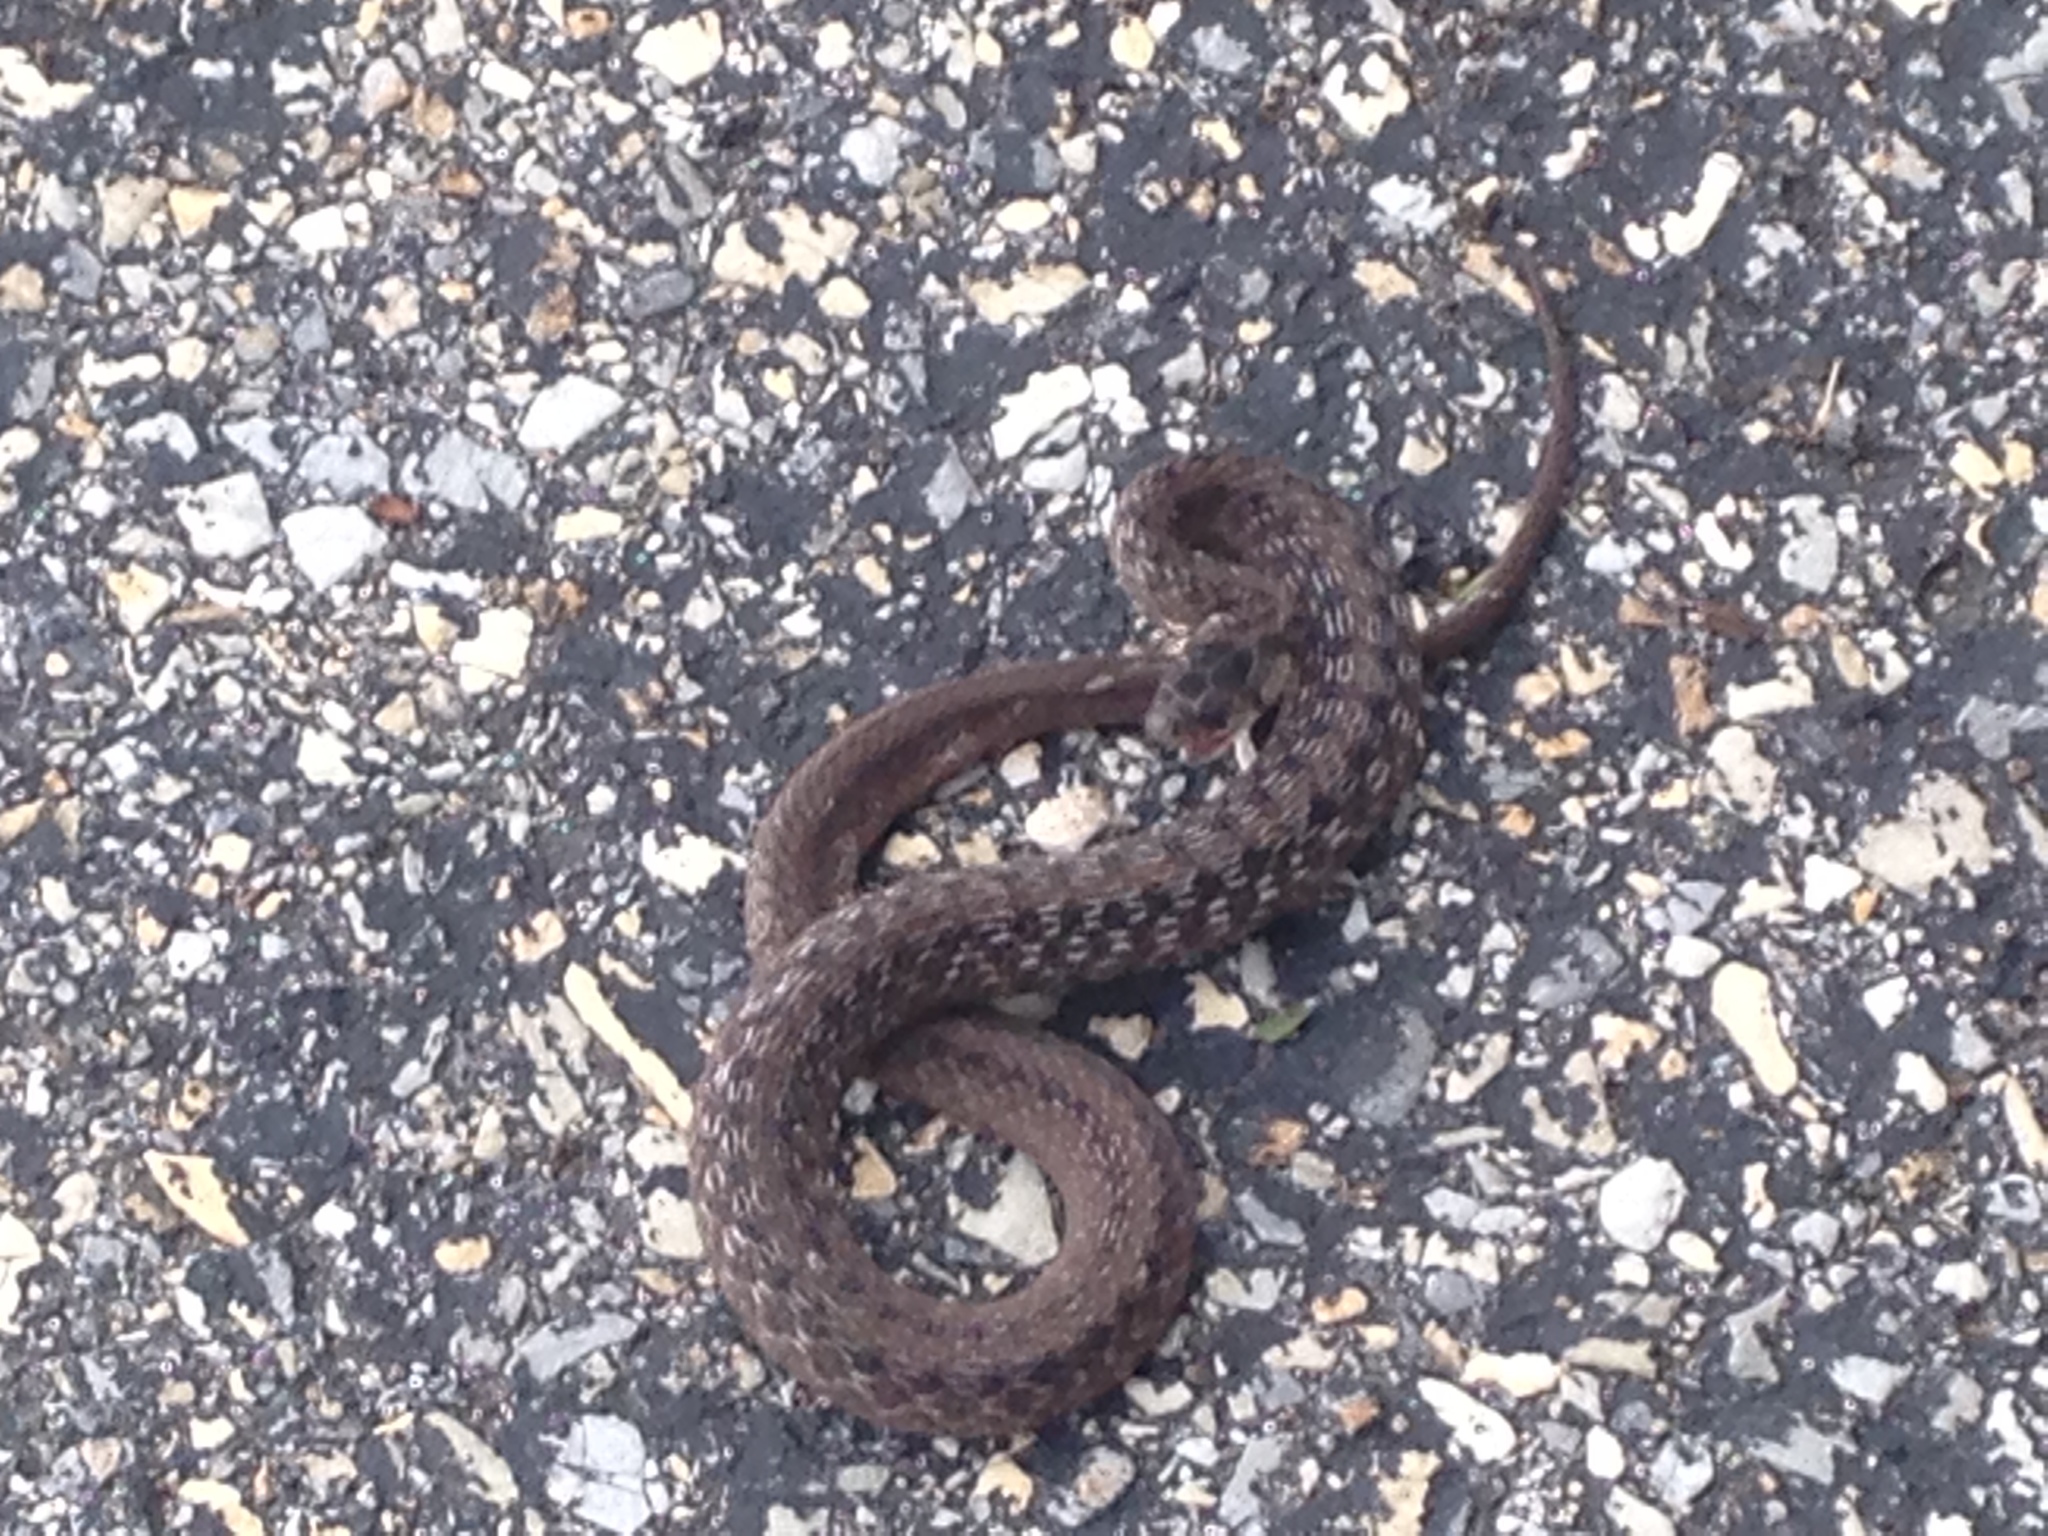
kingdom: Animalia
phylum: Chordata
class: Squamata
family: Colubridae
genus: Storeria
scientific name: Storeria dekayi
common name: (dekay’s) brown snake
